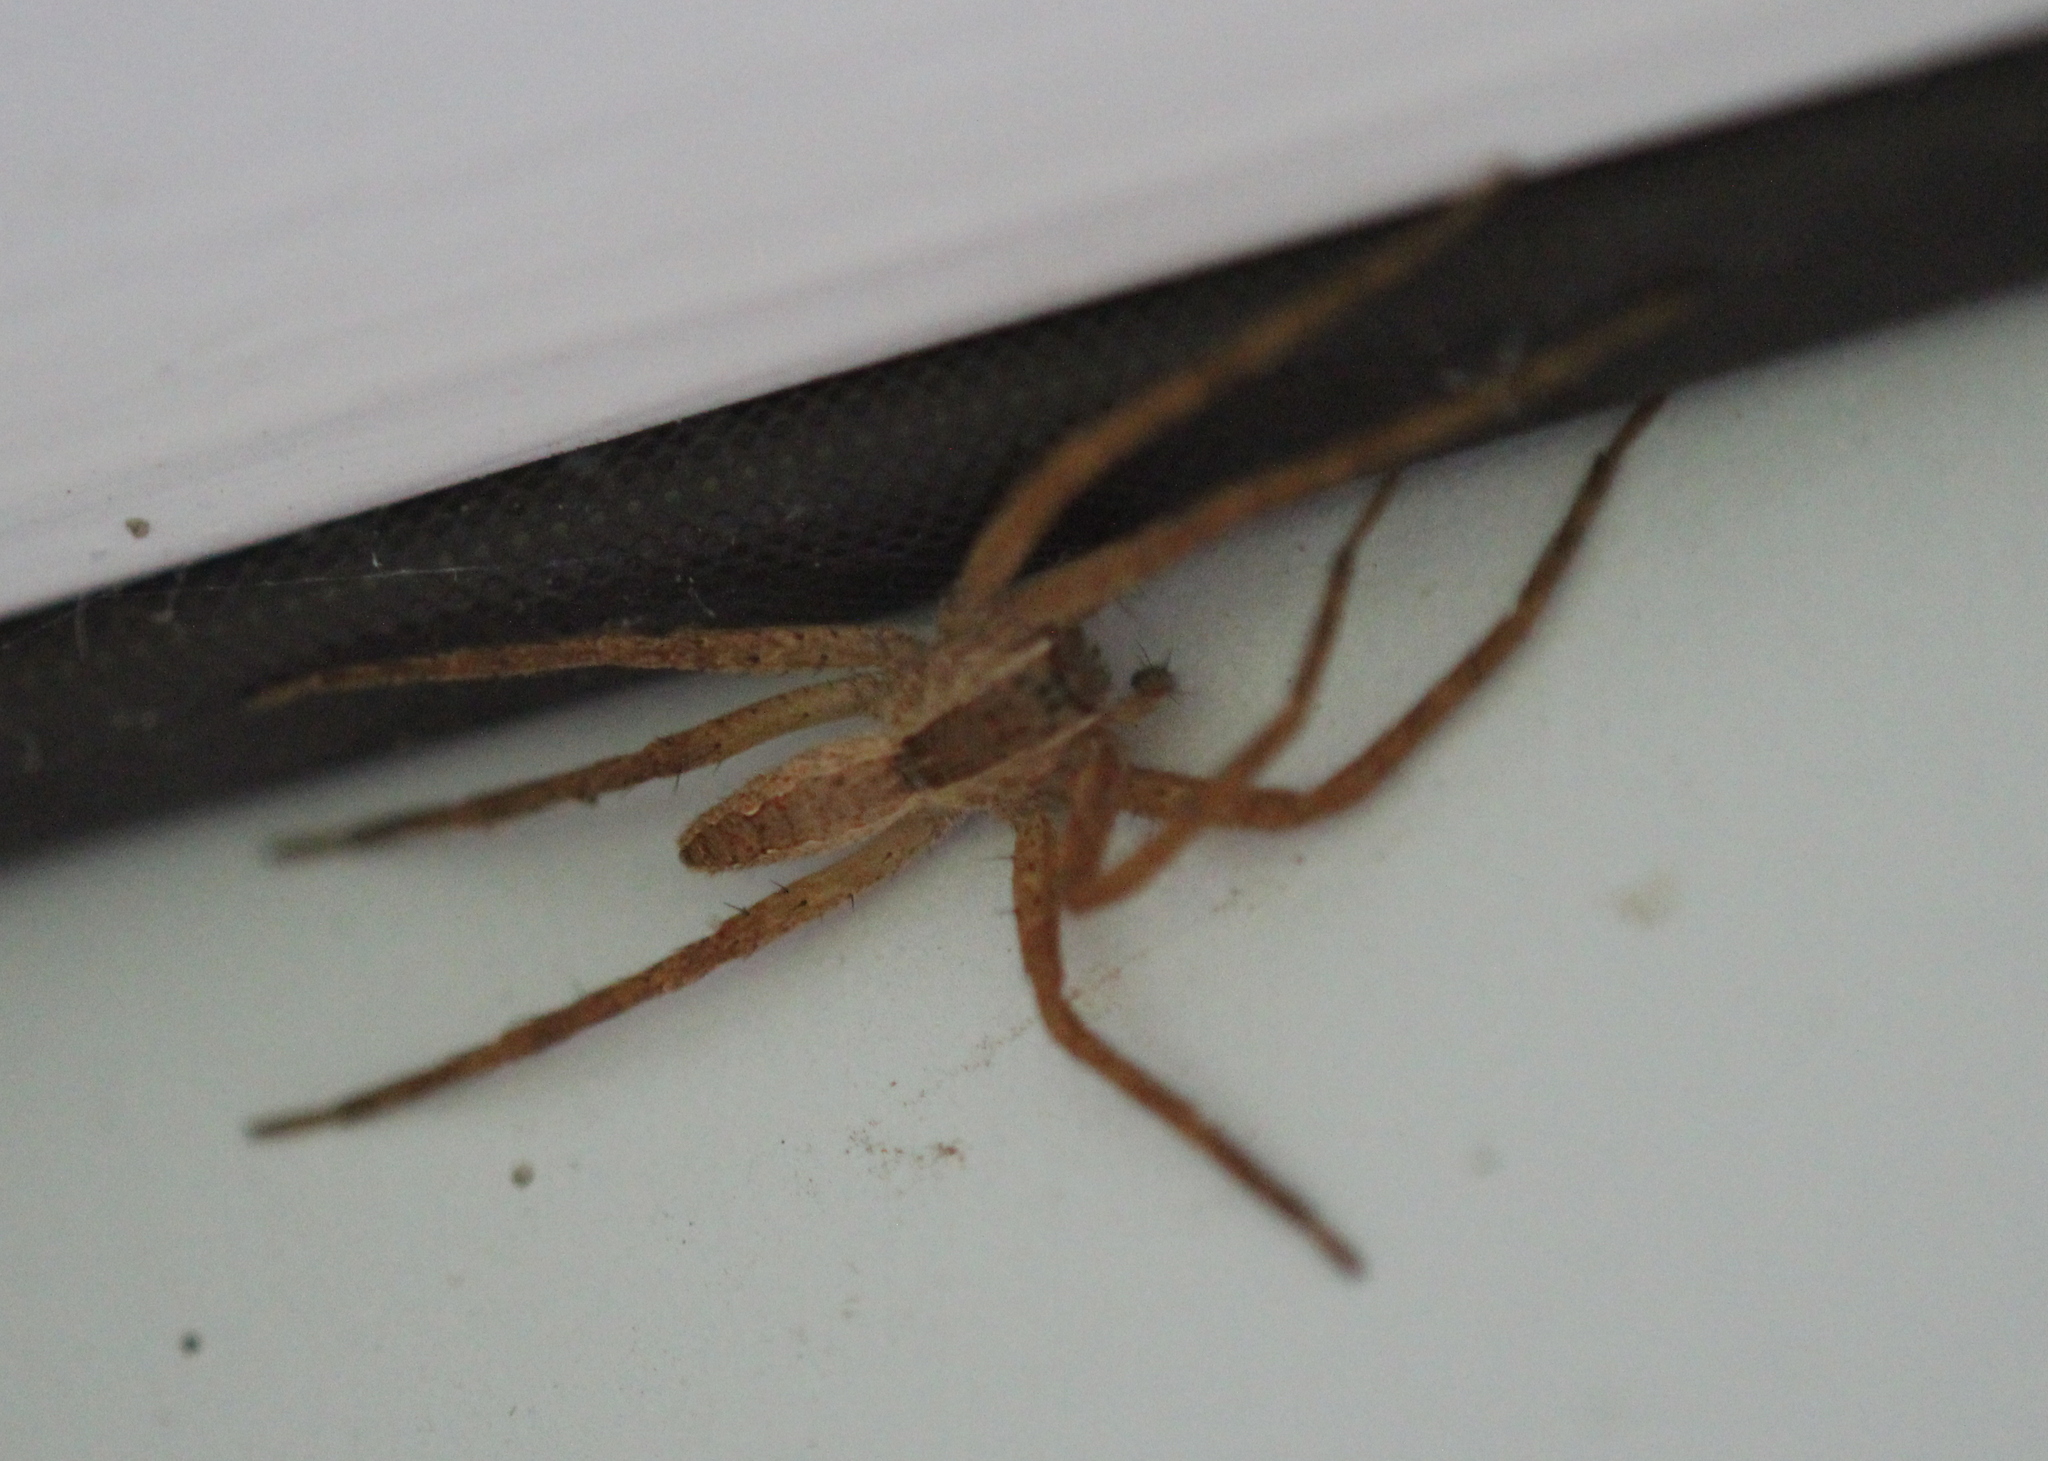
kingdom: Animalia
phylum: Arthropoda
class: Arachnida
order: Araneae
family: Pisauridae
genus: Pisaurina
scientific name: Pisaurina mira
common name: American nursery web spider
